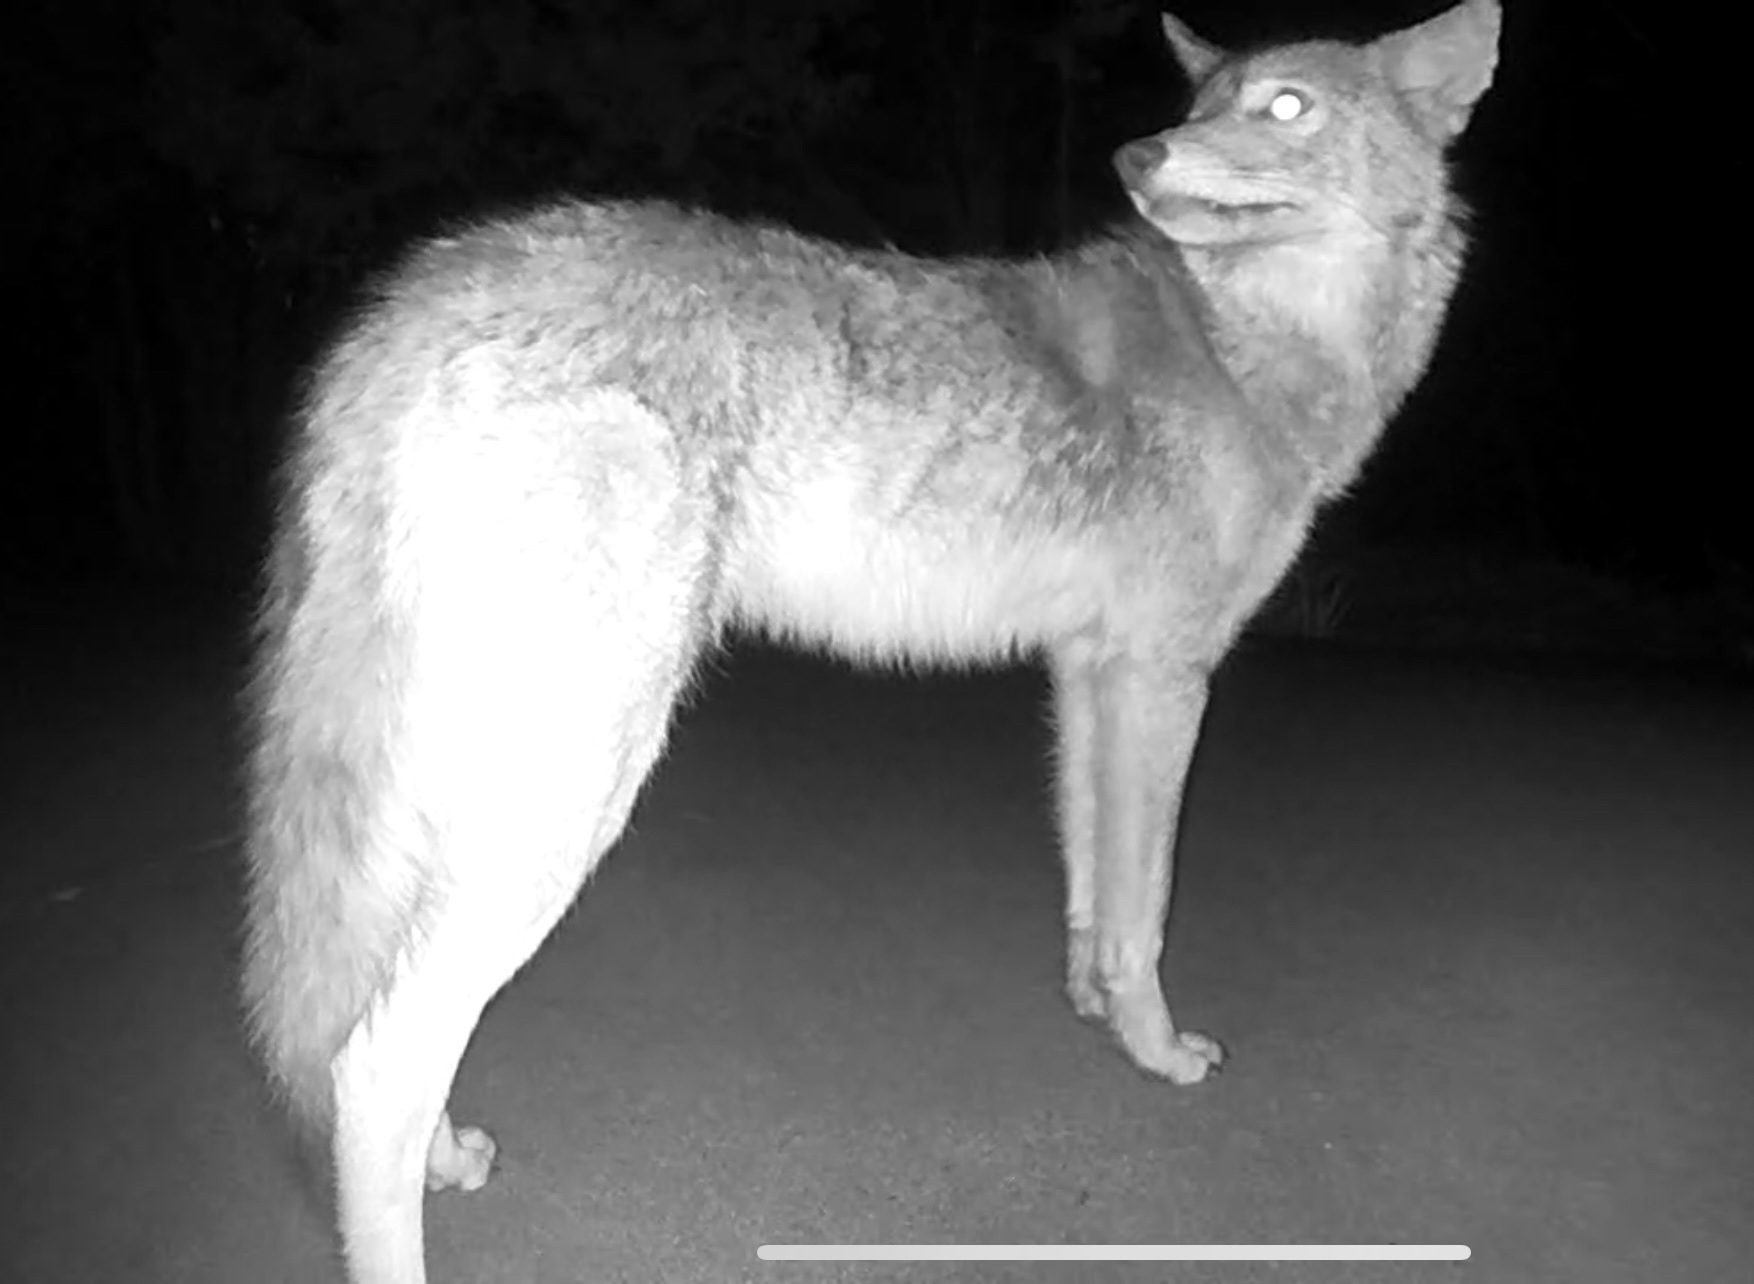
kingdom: Animalia
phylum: Chordata
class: Mammalia
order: Carnivora
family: Canidae
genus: Canis
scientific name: Canis latrans
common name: Coyote
